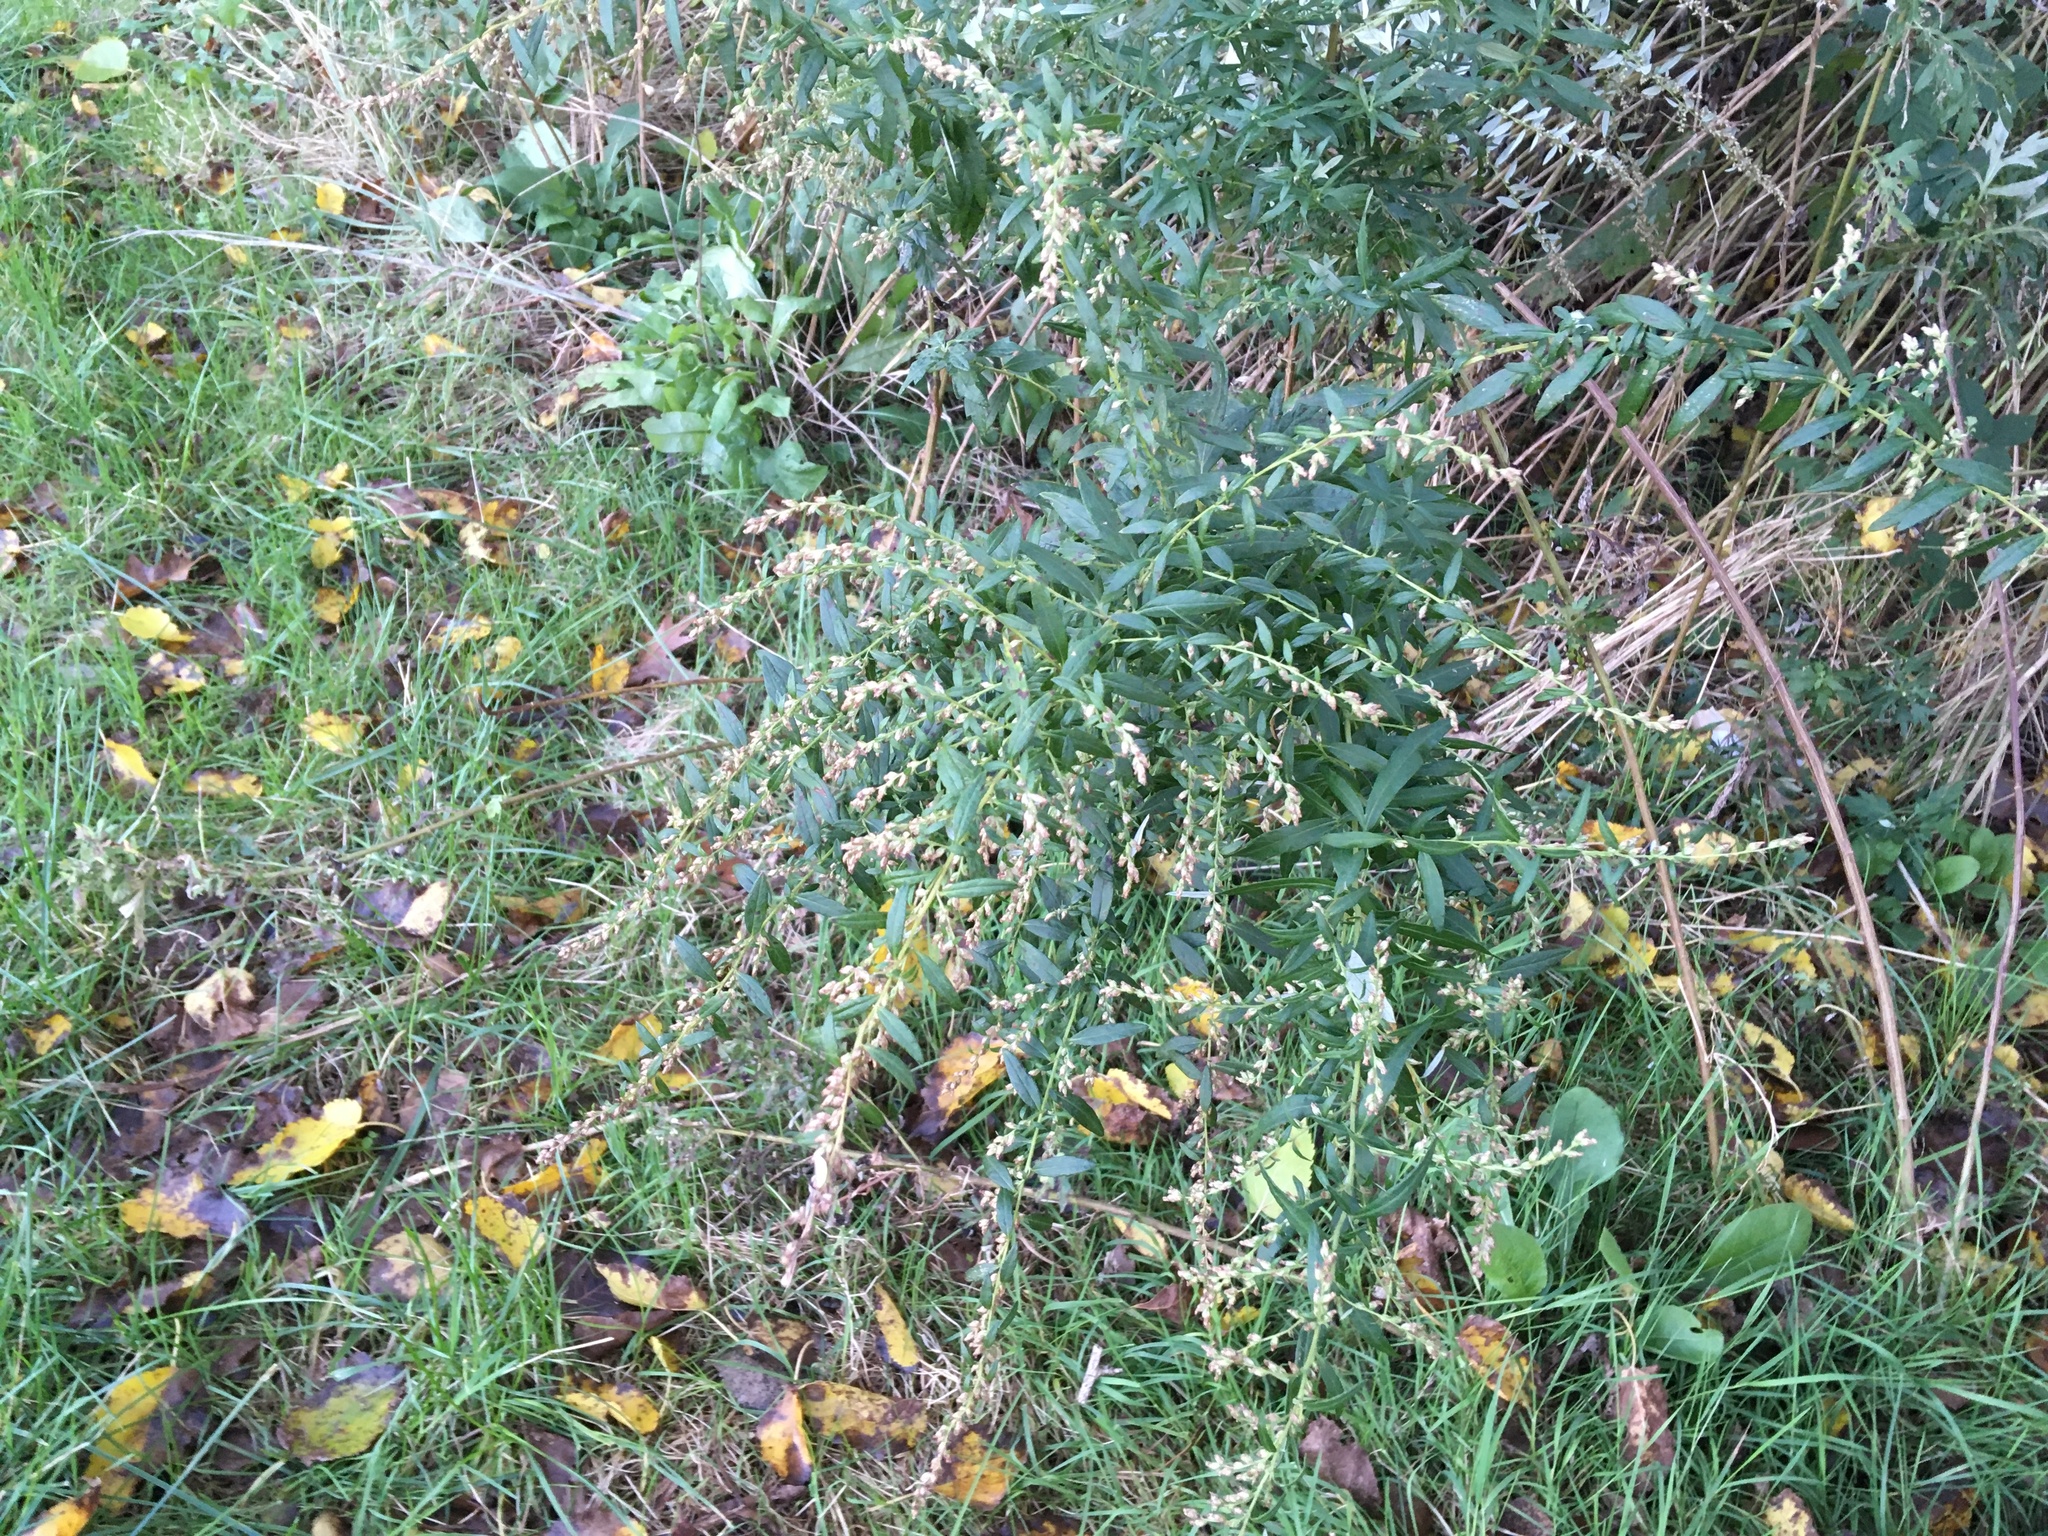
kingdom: Plantae
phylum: Tracheophyta
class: Magnoliopsida
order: Asterales
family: Asteraceae
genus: Artemisia
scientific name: Artemisia vulgaris
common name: Mugwort
